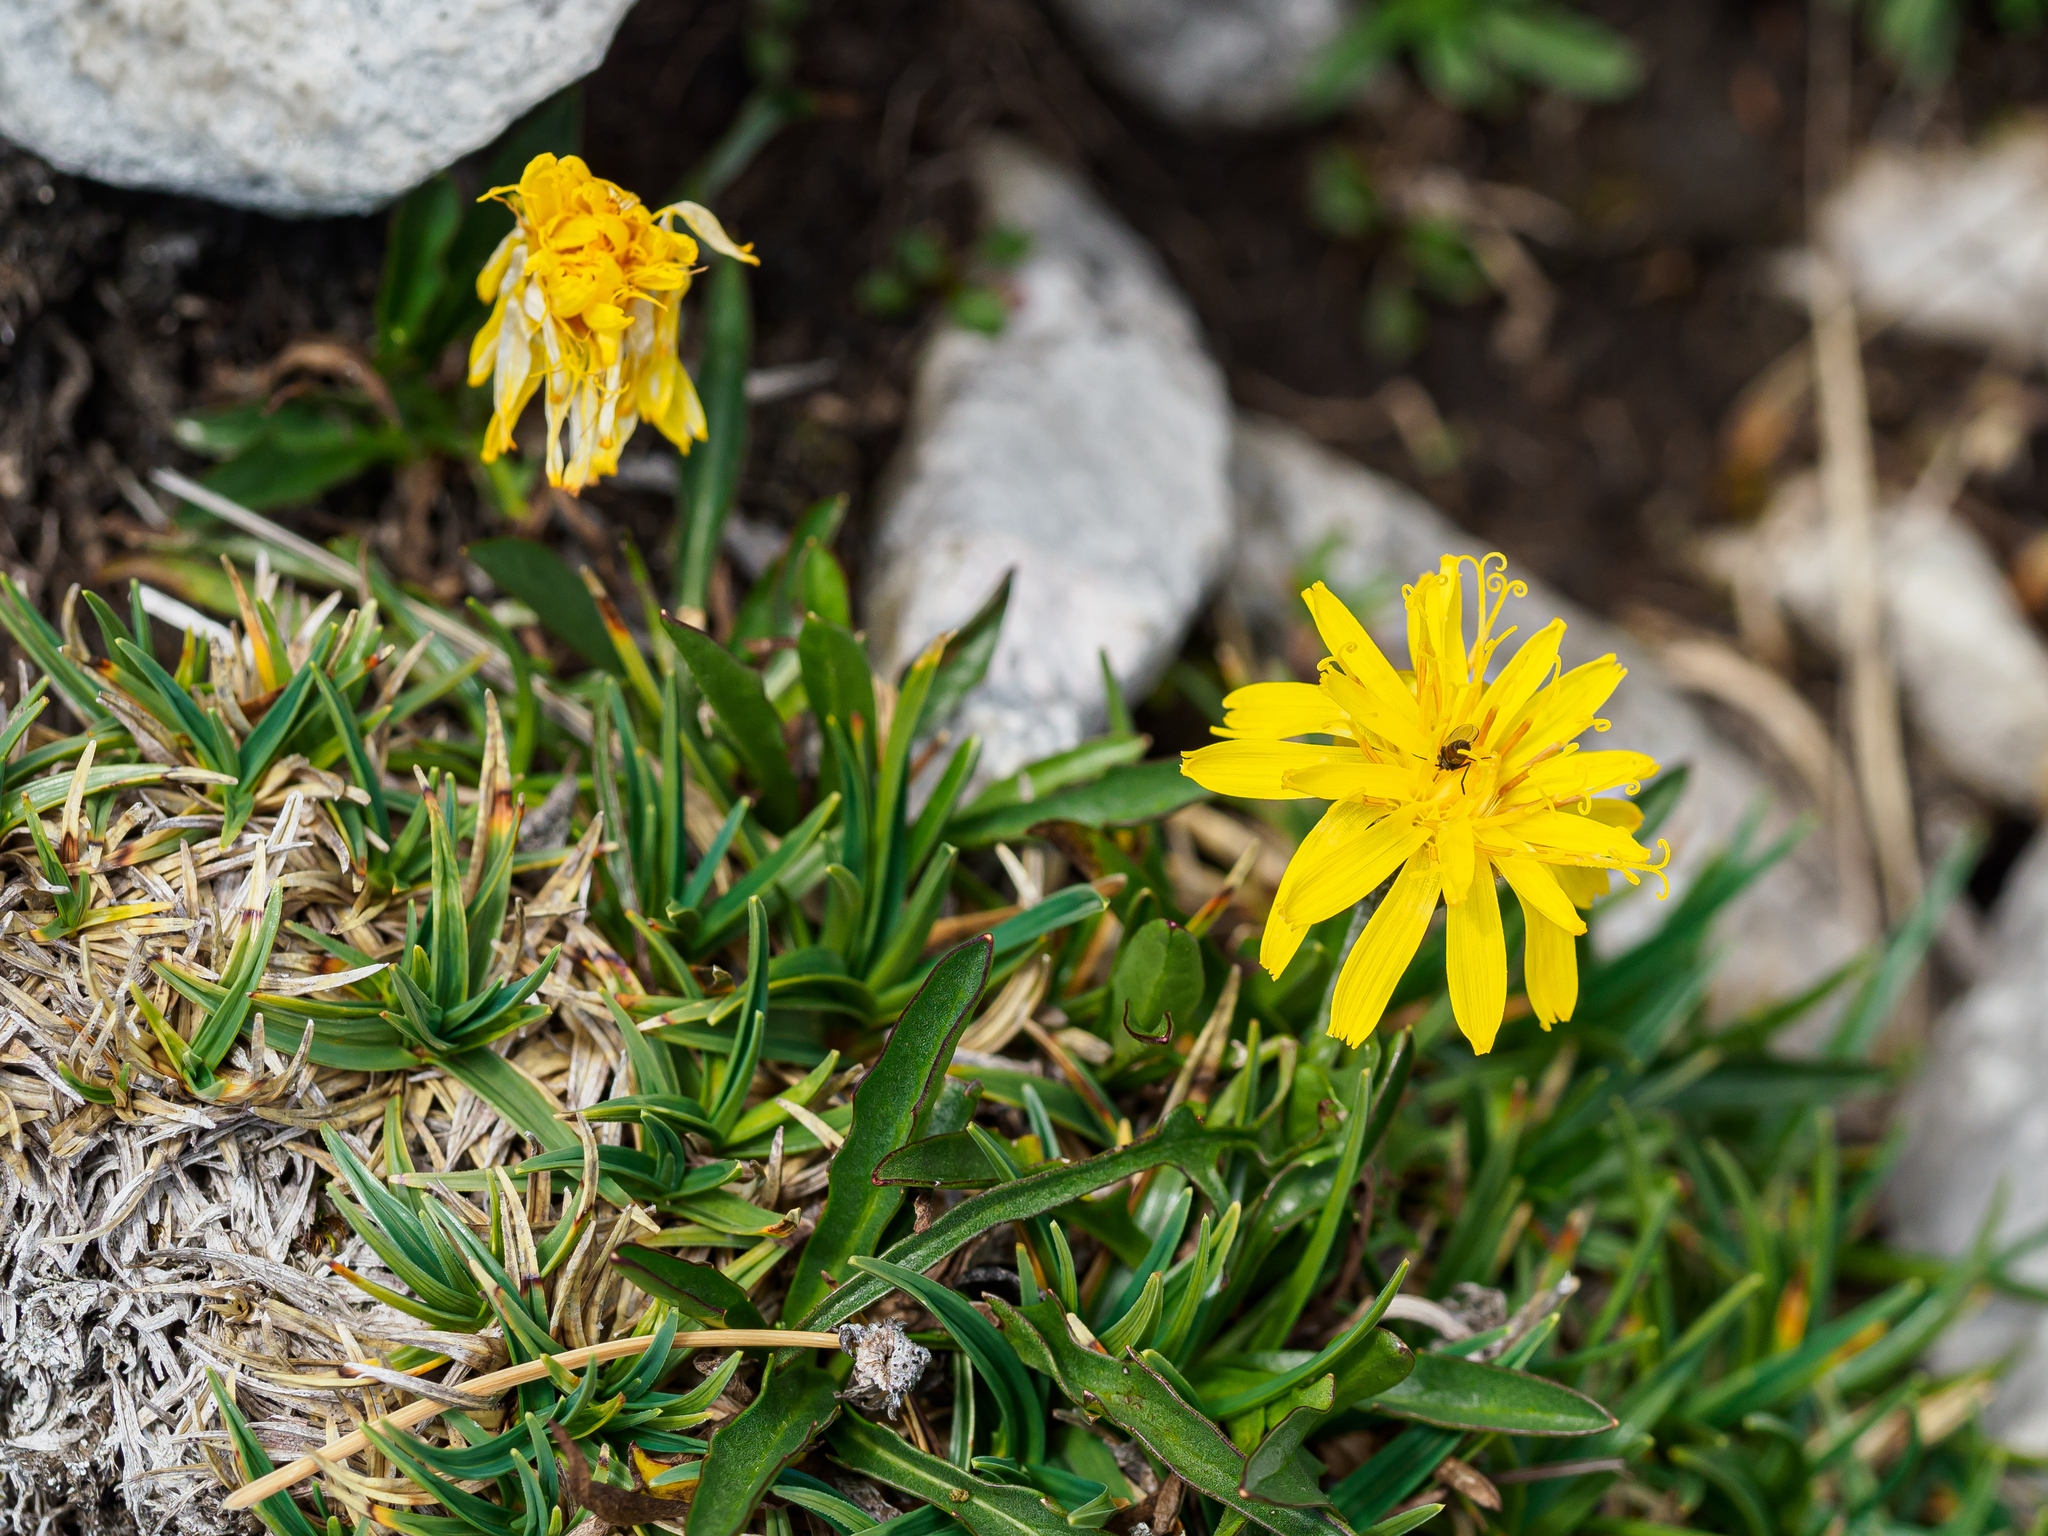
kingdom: Plantae
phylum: Tracheophyta
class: Magnoliopsida
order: Asterales
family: Asteraceae
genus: Crepis
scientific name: Crepis jacquinii
